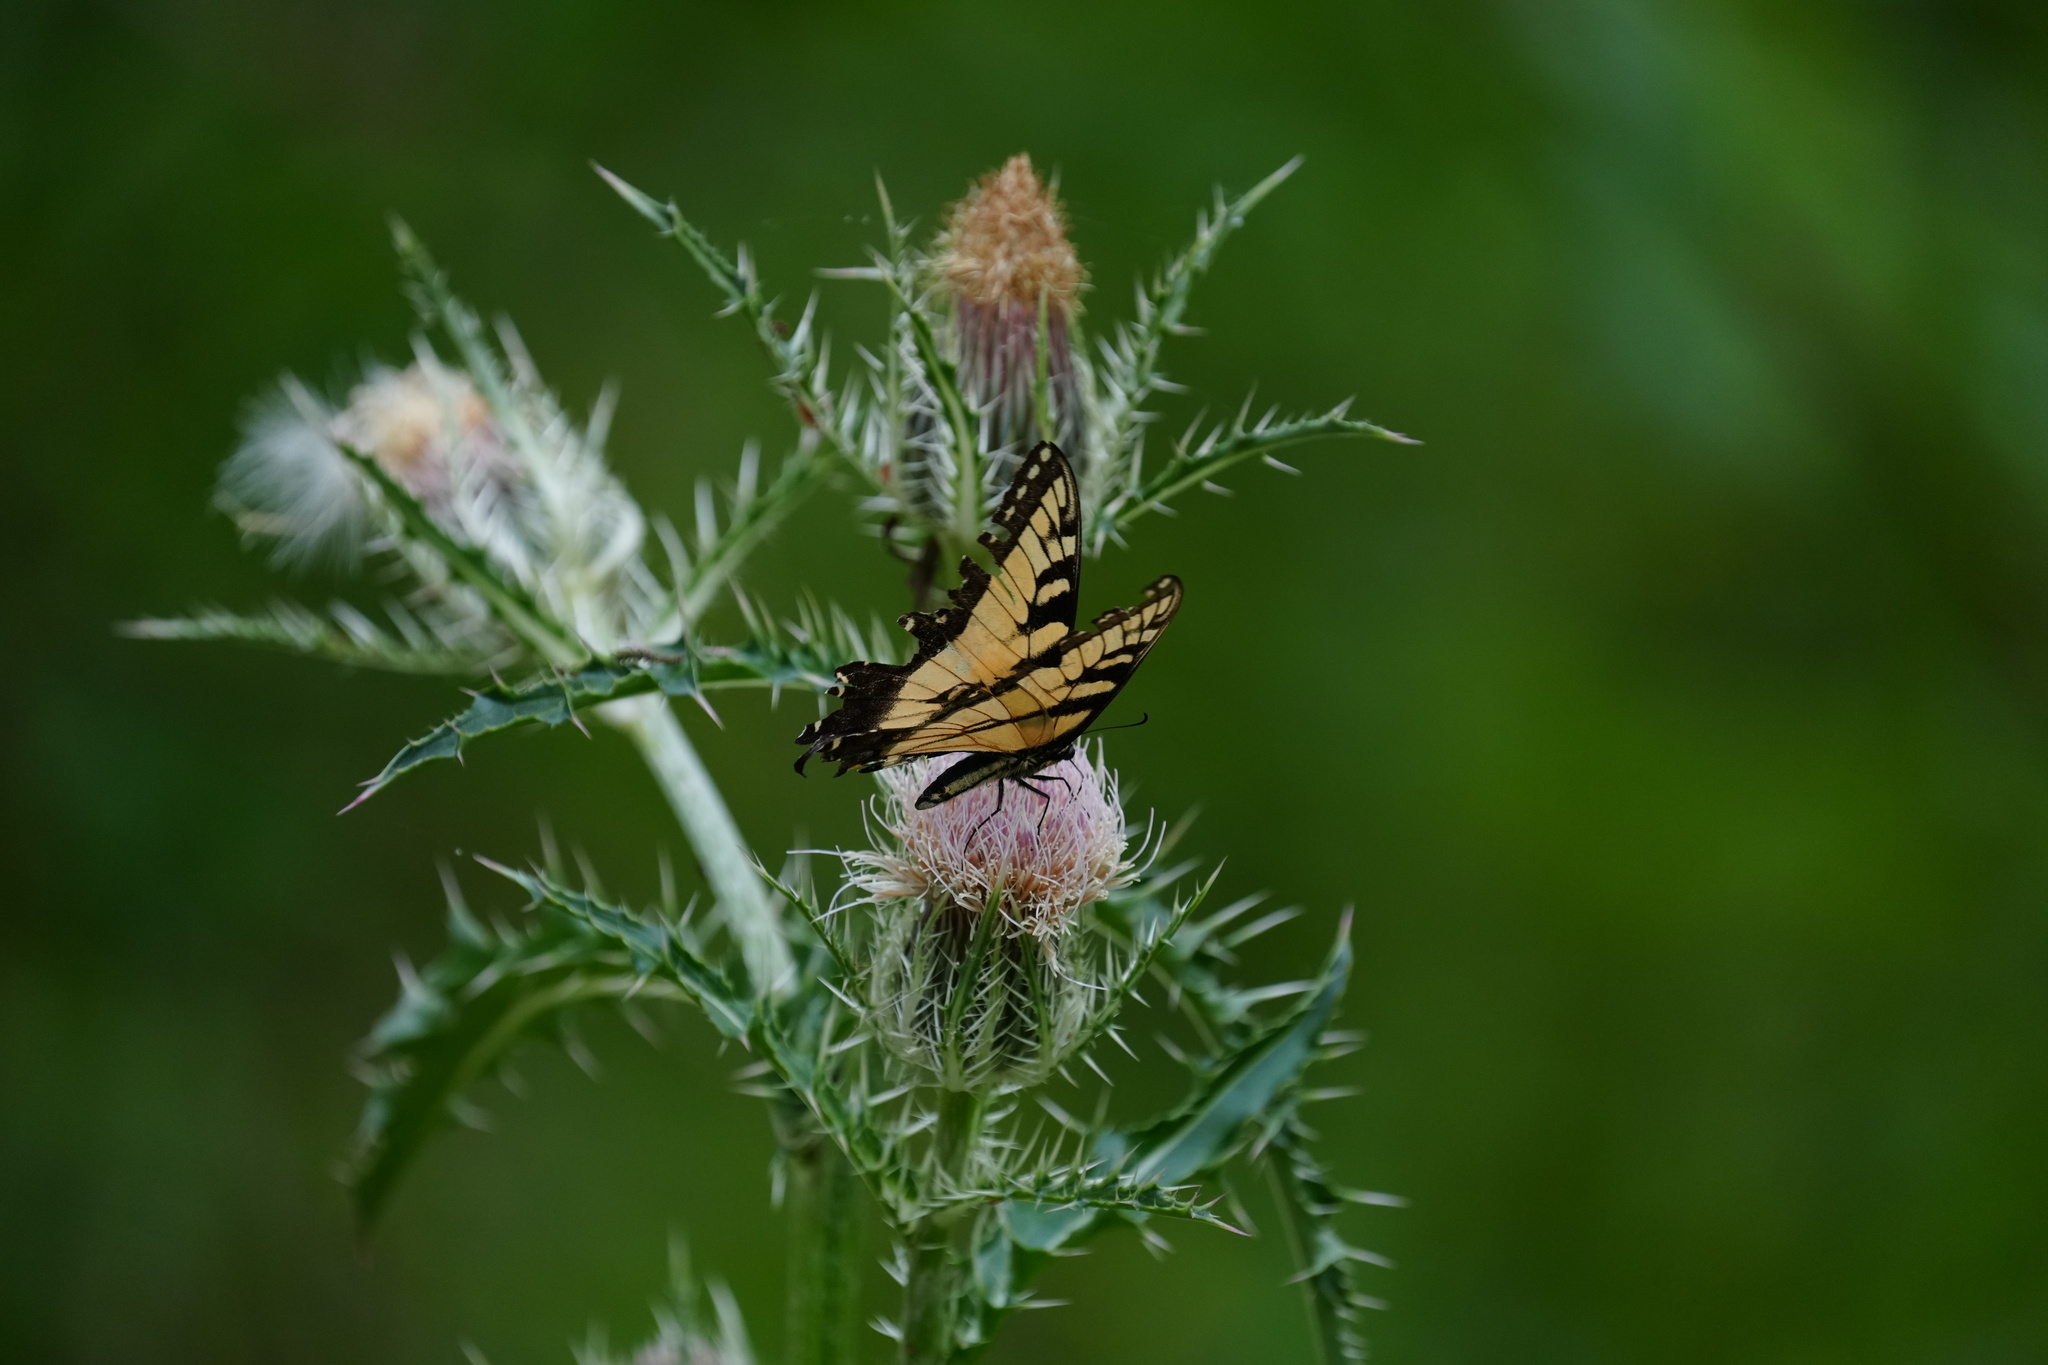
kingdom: Animalia
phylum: Arthropoda
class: Insecta
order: Lepidoptera
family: Papilionidae
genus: Papilio
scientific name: Papilio glaucus
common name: Tiger swallowtail
